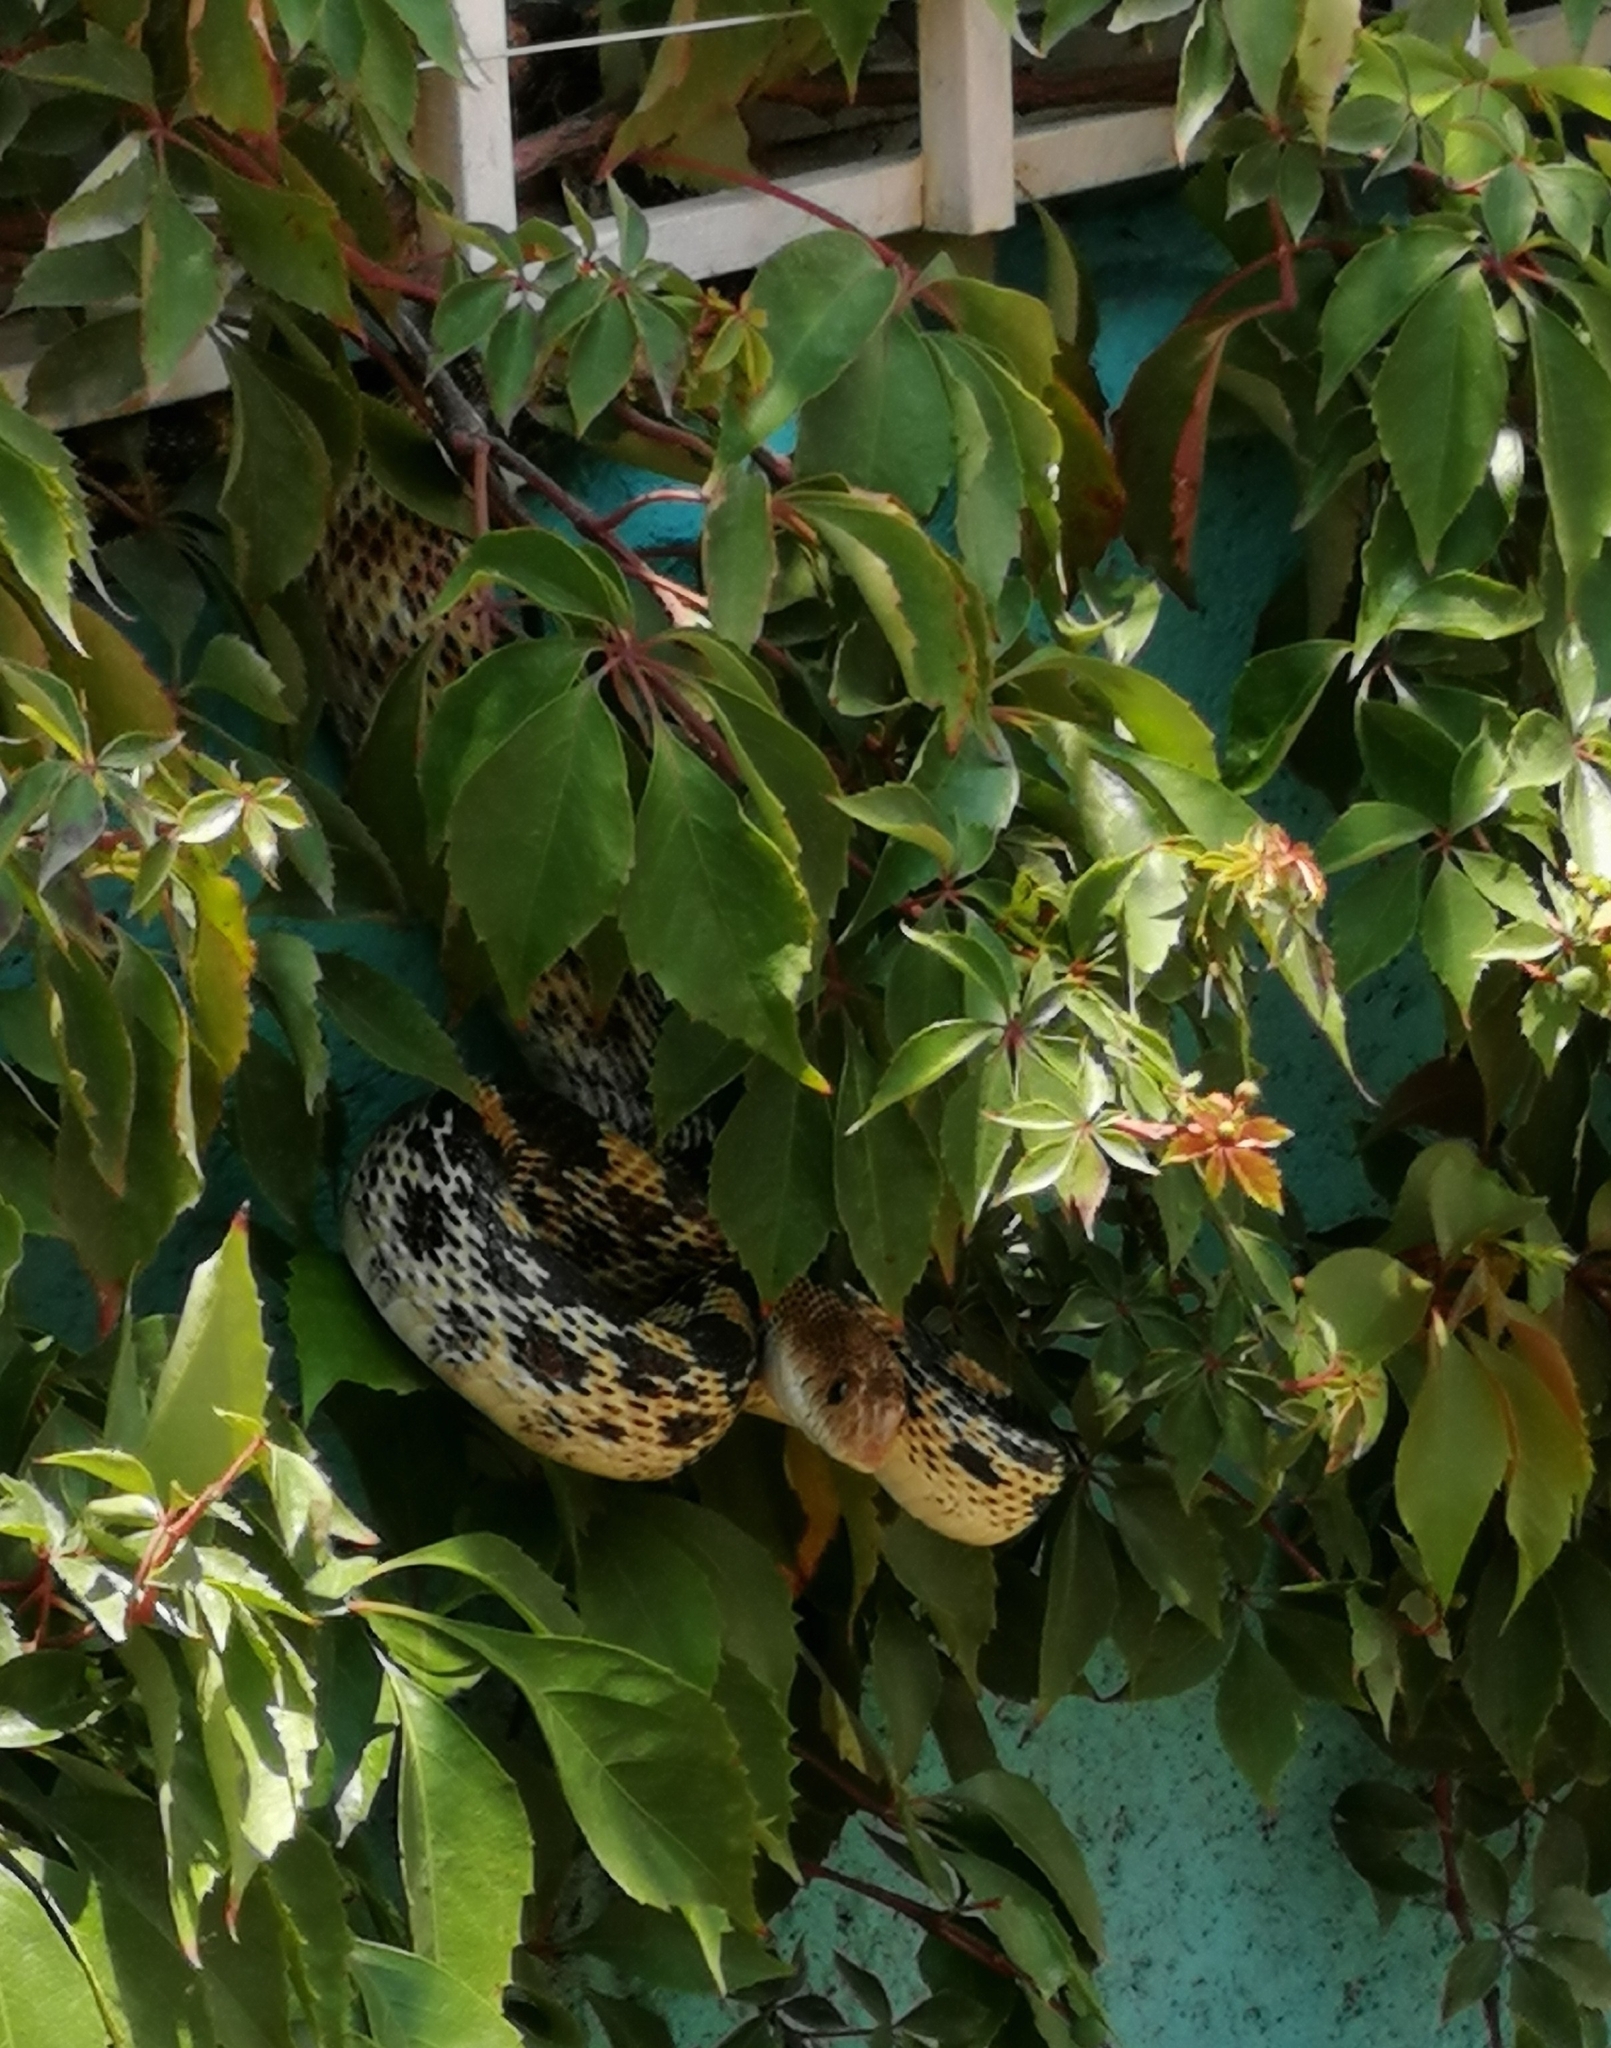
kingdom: Animalia
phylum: Chordata
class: Squamata
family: Colubridae
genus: Pituophis
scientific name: Pituophis deppei
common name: Mexican bull snake
